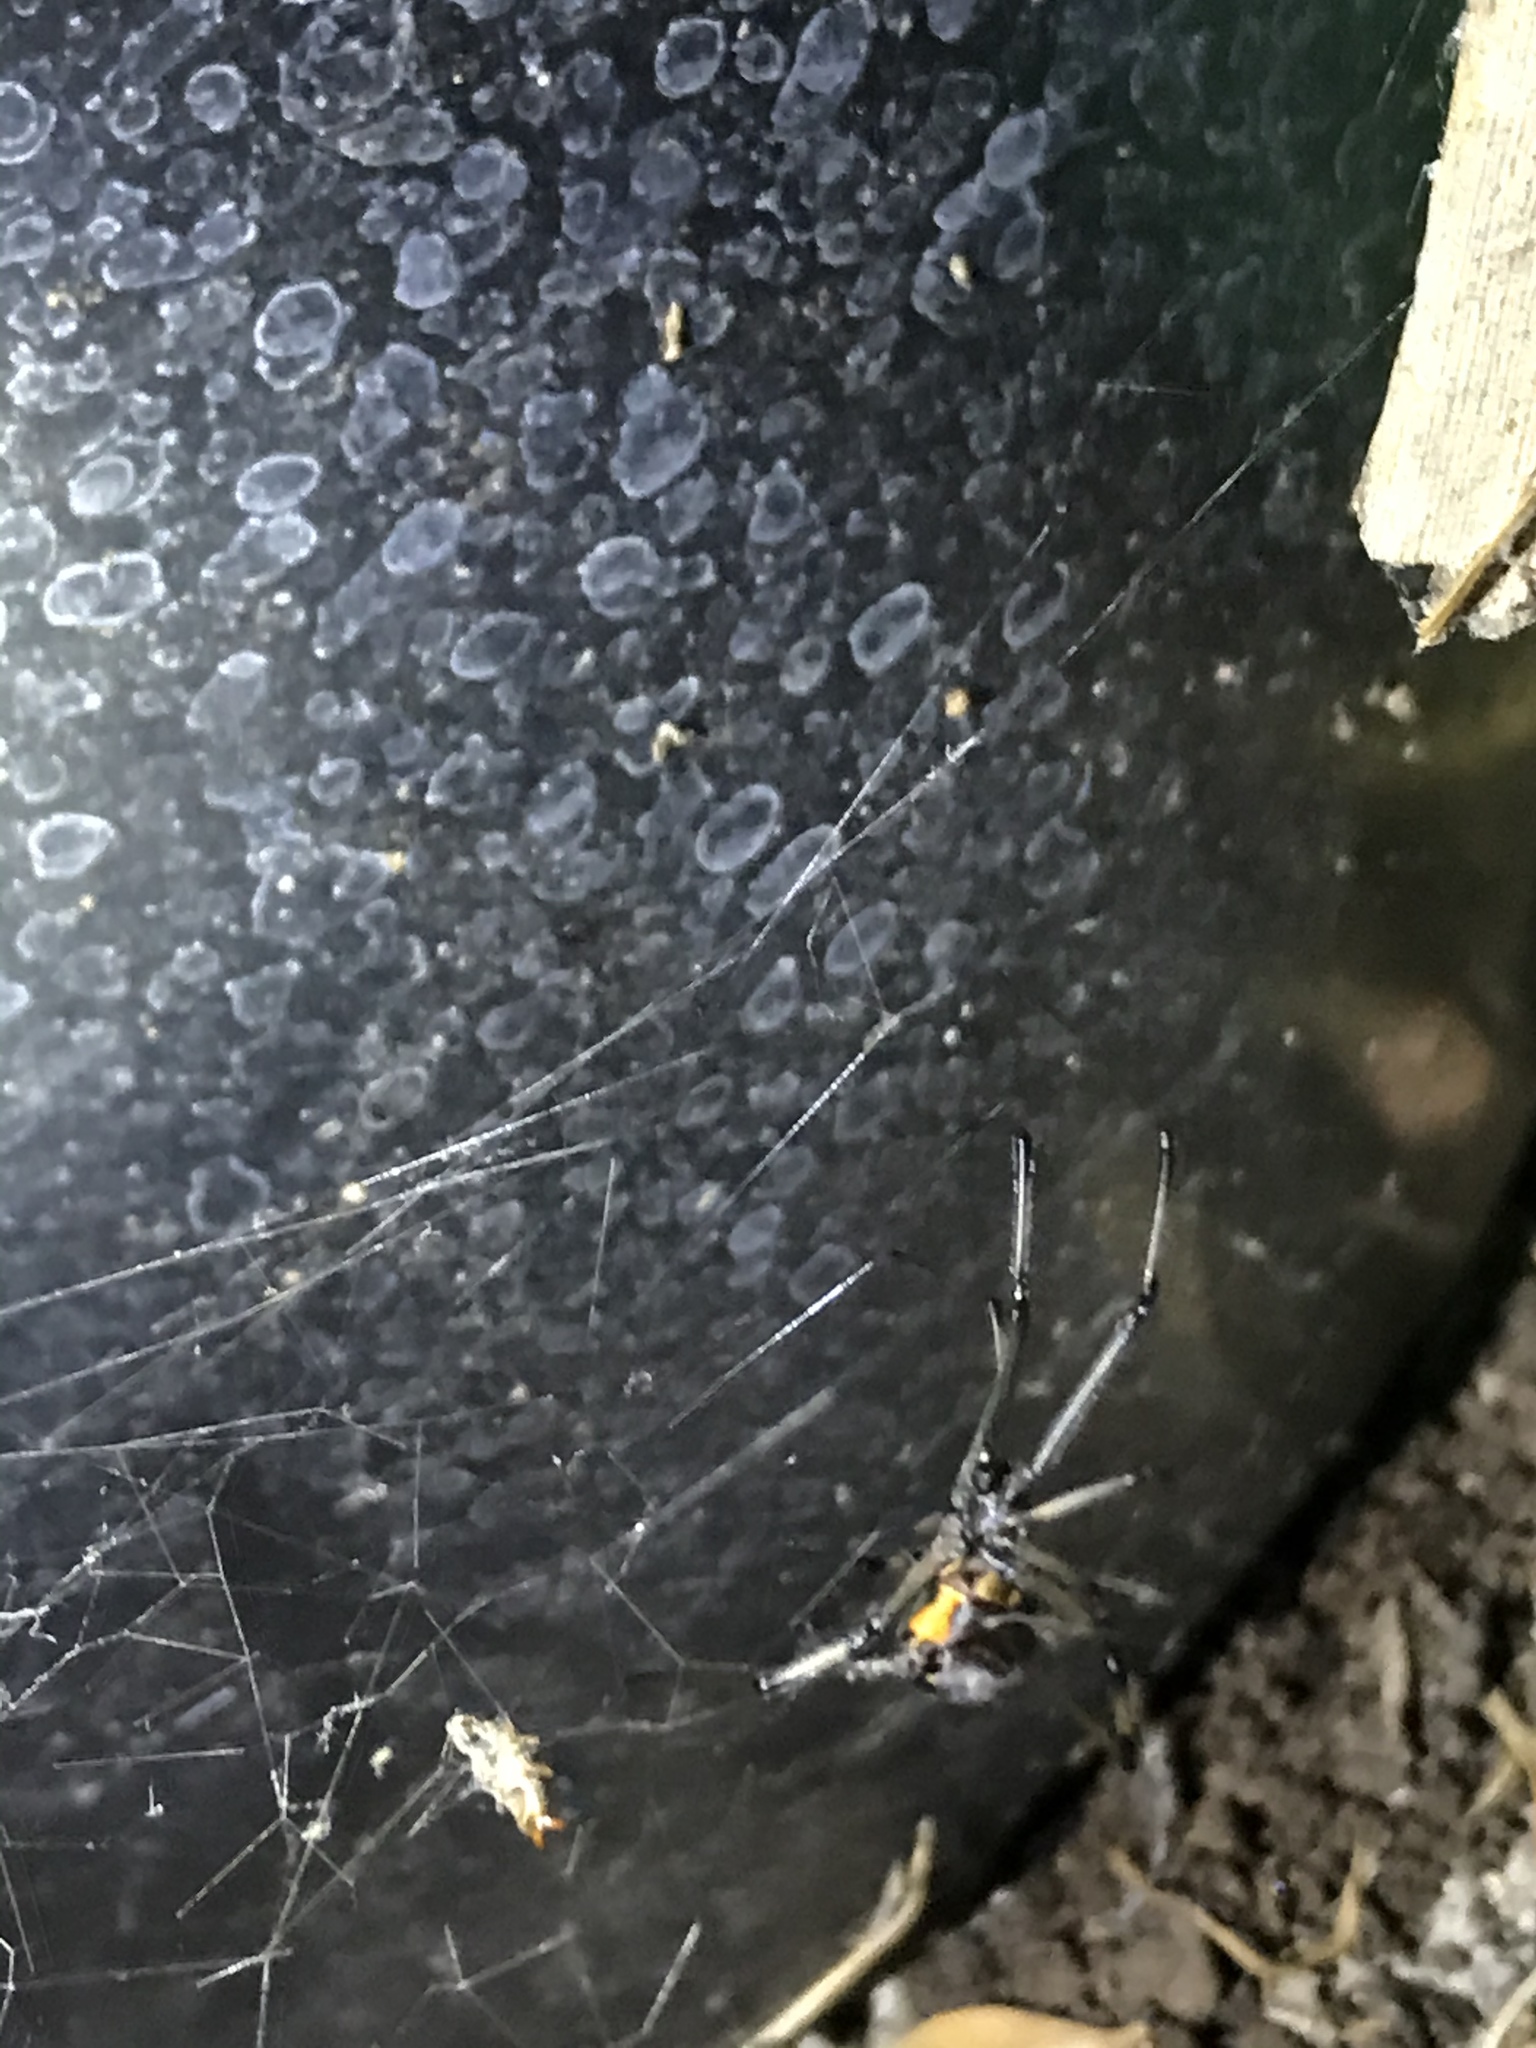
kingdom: Animalia
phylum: Arthropoda
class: Arachnida
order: Araneae
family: Theridiidae
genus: Latrodectus
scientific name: Latrodectus geometricus
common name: Brown widow spider
